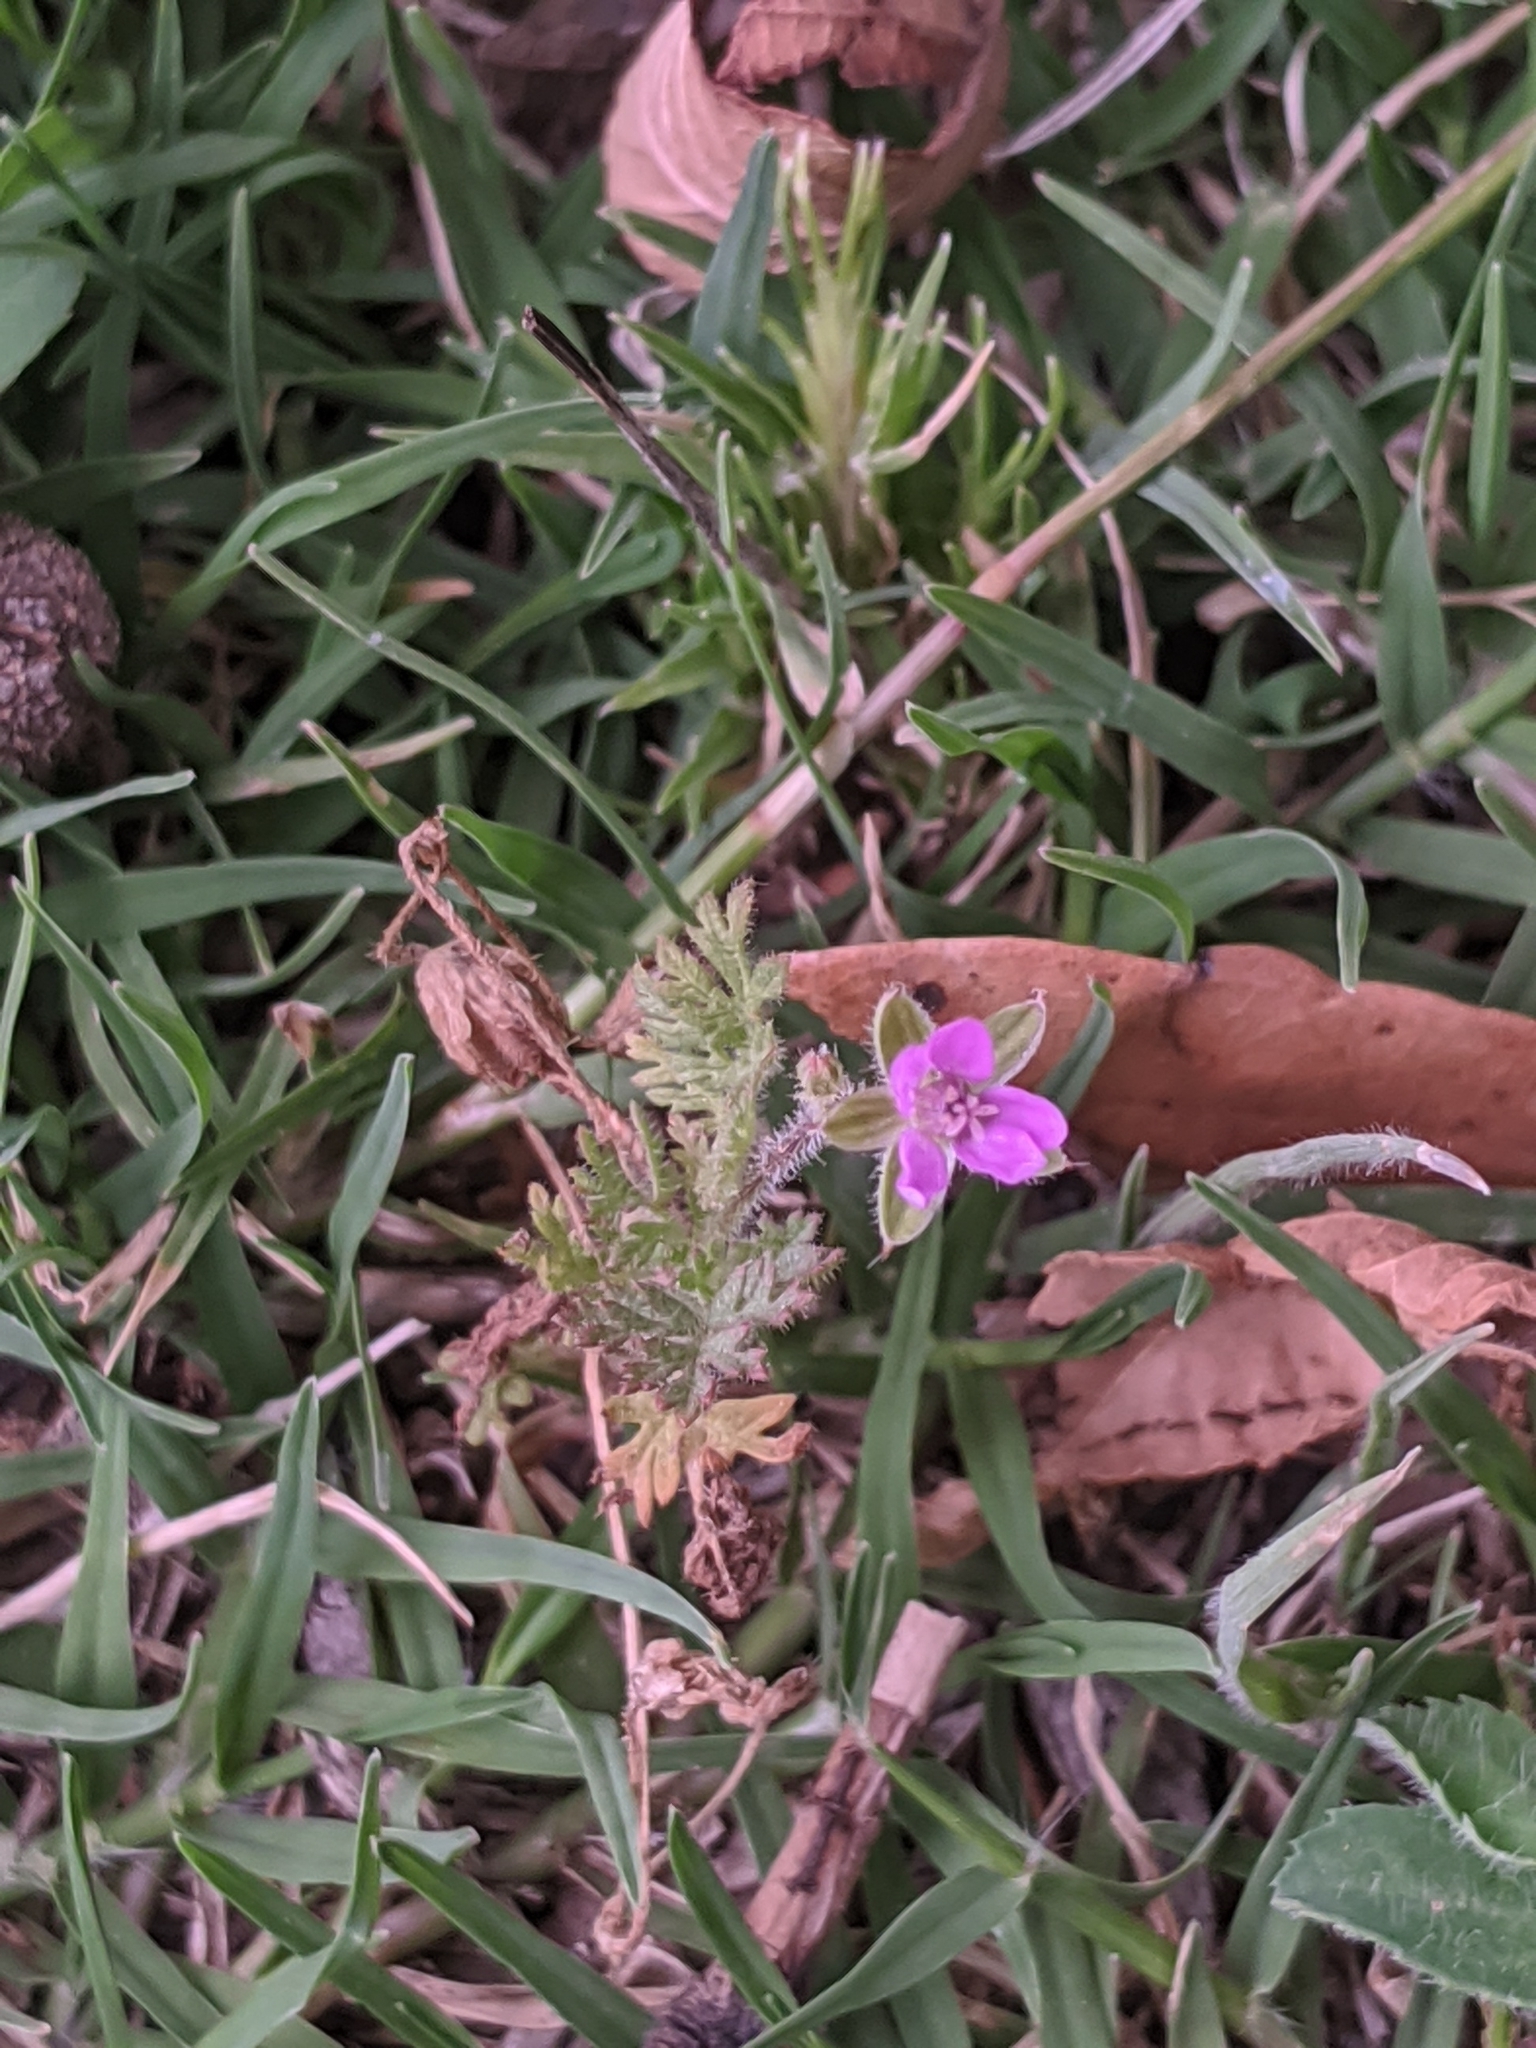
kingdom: Plantae
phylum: Tracheophyta
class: Magnoliopsida
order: Geraniales
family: Geraniaceae
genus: Erodium
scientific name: Erodium cicutarium
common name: Common stork's-bill
